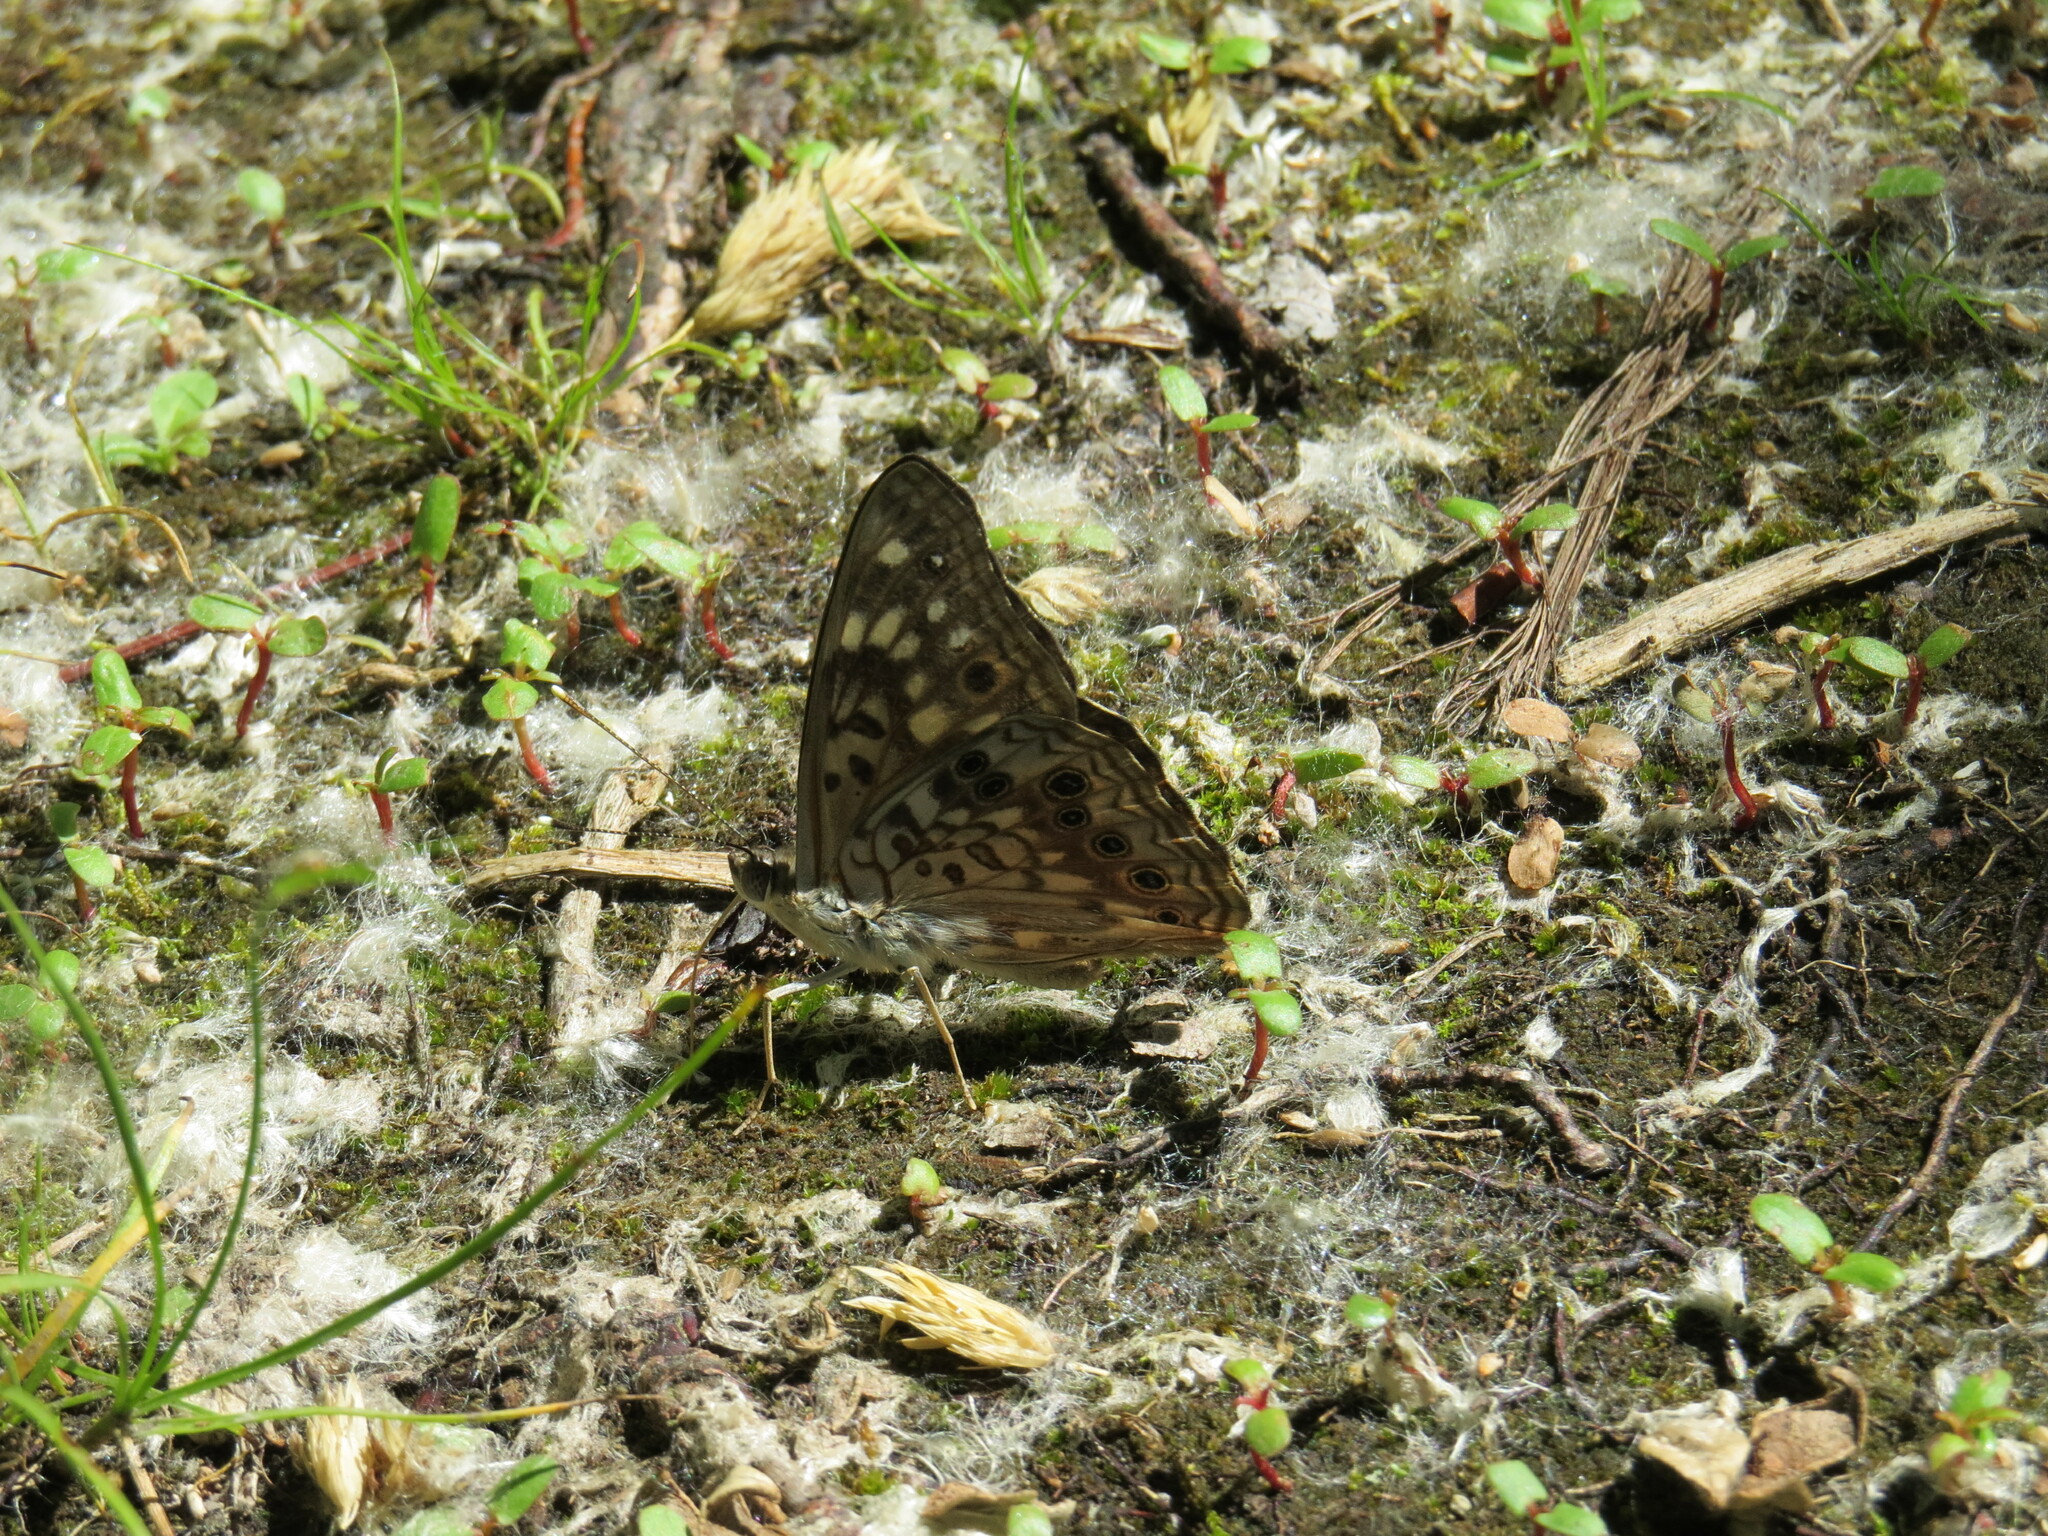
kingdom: Animalia
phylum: Arthropoda
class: Insecta
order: Lepidoptera
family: Nymphalidae
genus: Asterocampa
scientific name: Asterocampa celtis
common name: Hackberry emperor
